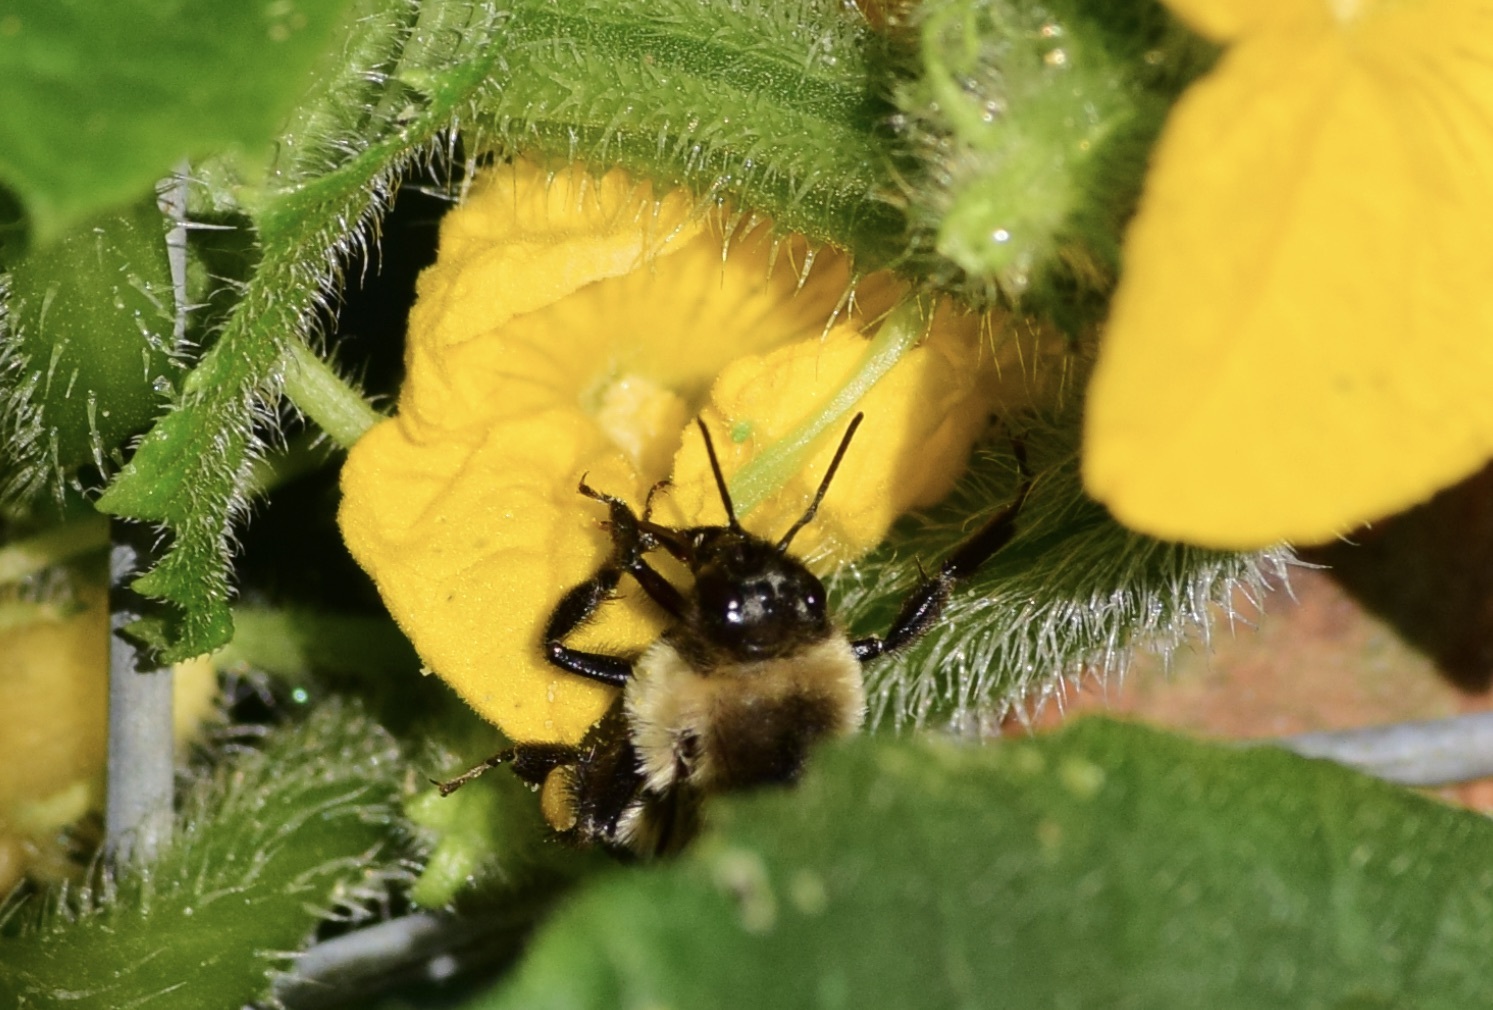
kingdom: Animalia
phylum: Arthropoda
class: Insecta
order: Hymenoptera
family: Apidae
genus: Bombus
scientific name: Bombus impatiens
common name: Common eastern bumble bee
